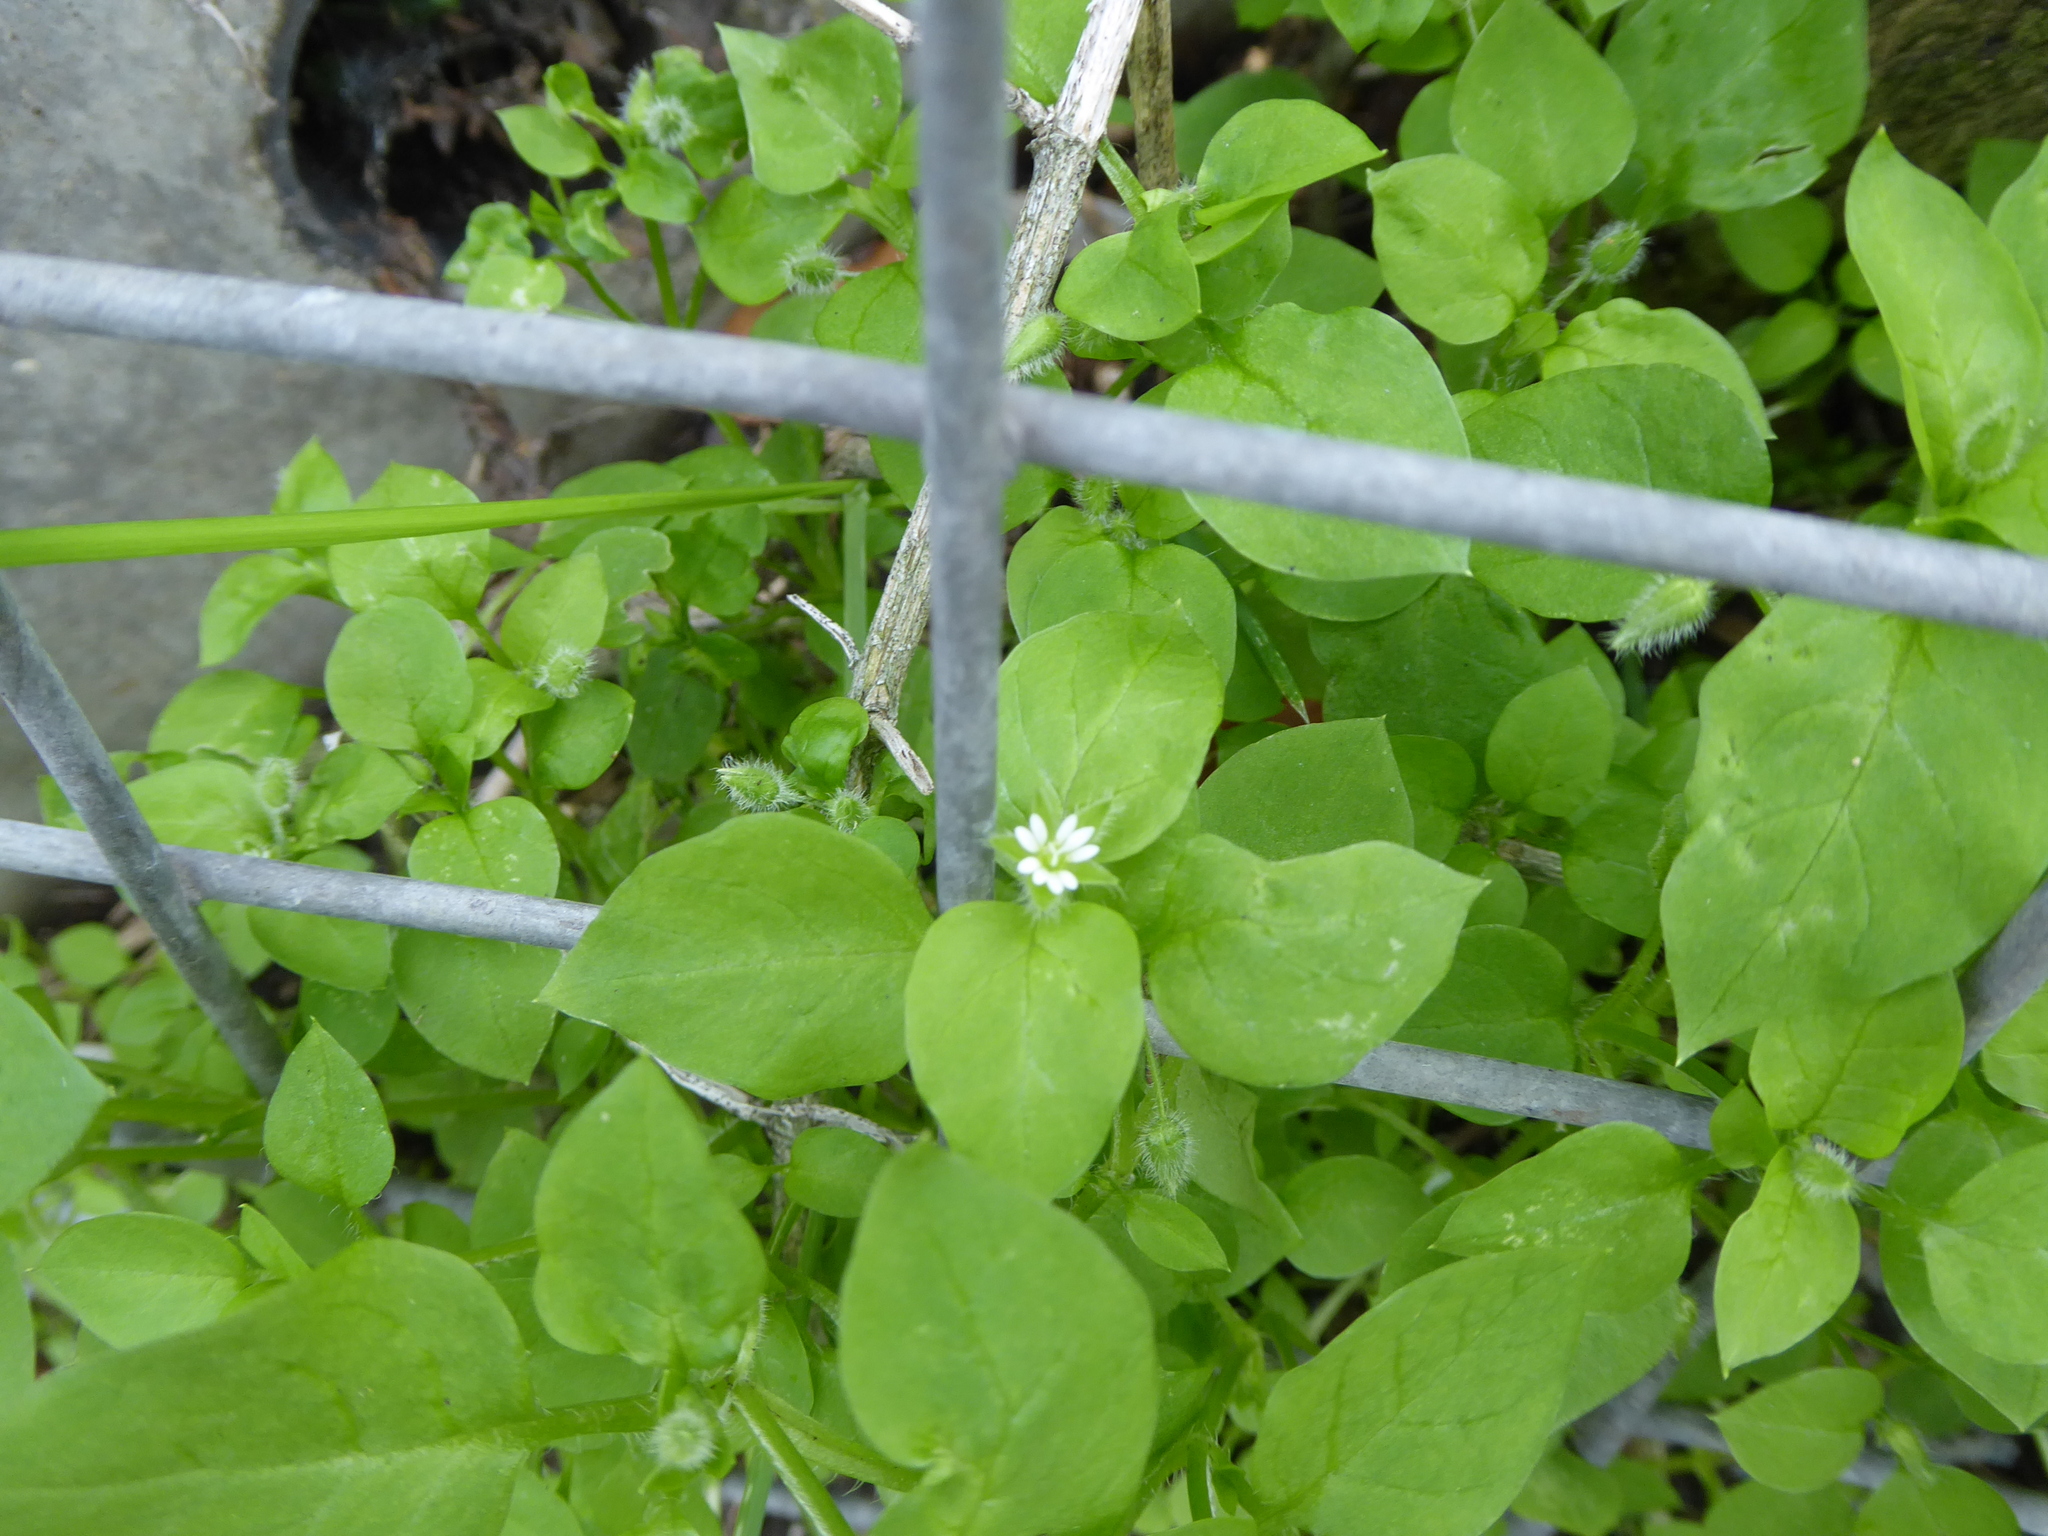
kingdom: Plantae
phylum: Tracheophyta
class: Magnoliopsida
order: Caryophyllales
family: Caryophyllaceae
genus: Stellaria
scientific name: Stellaria media
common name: Common chickweed
